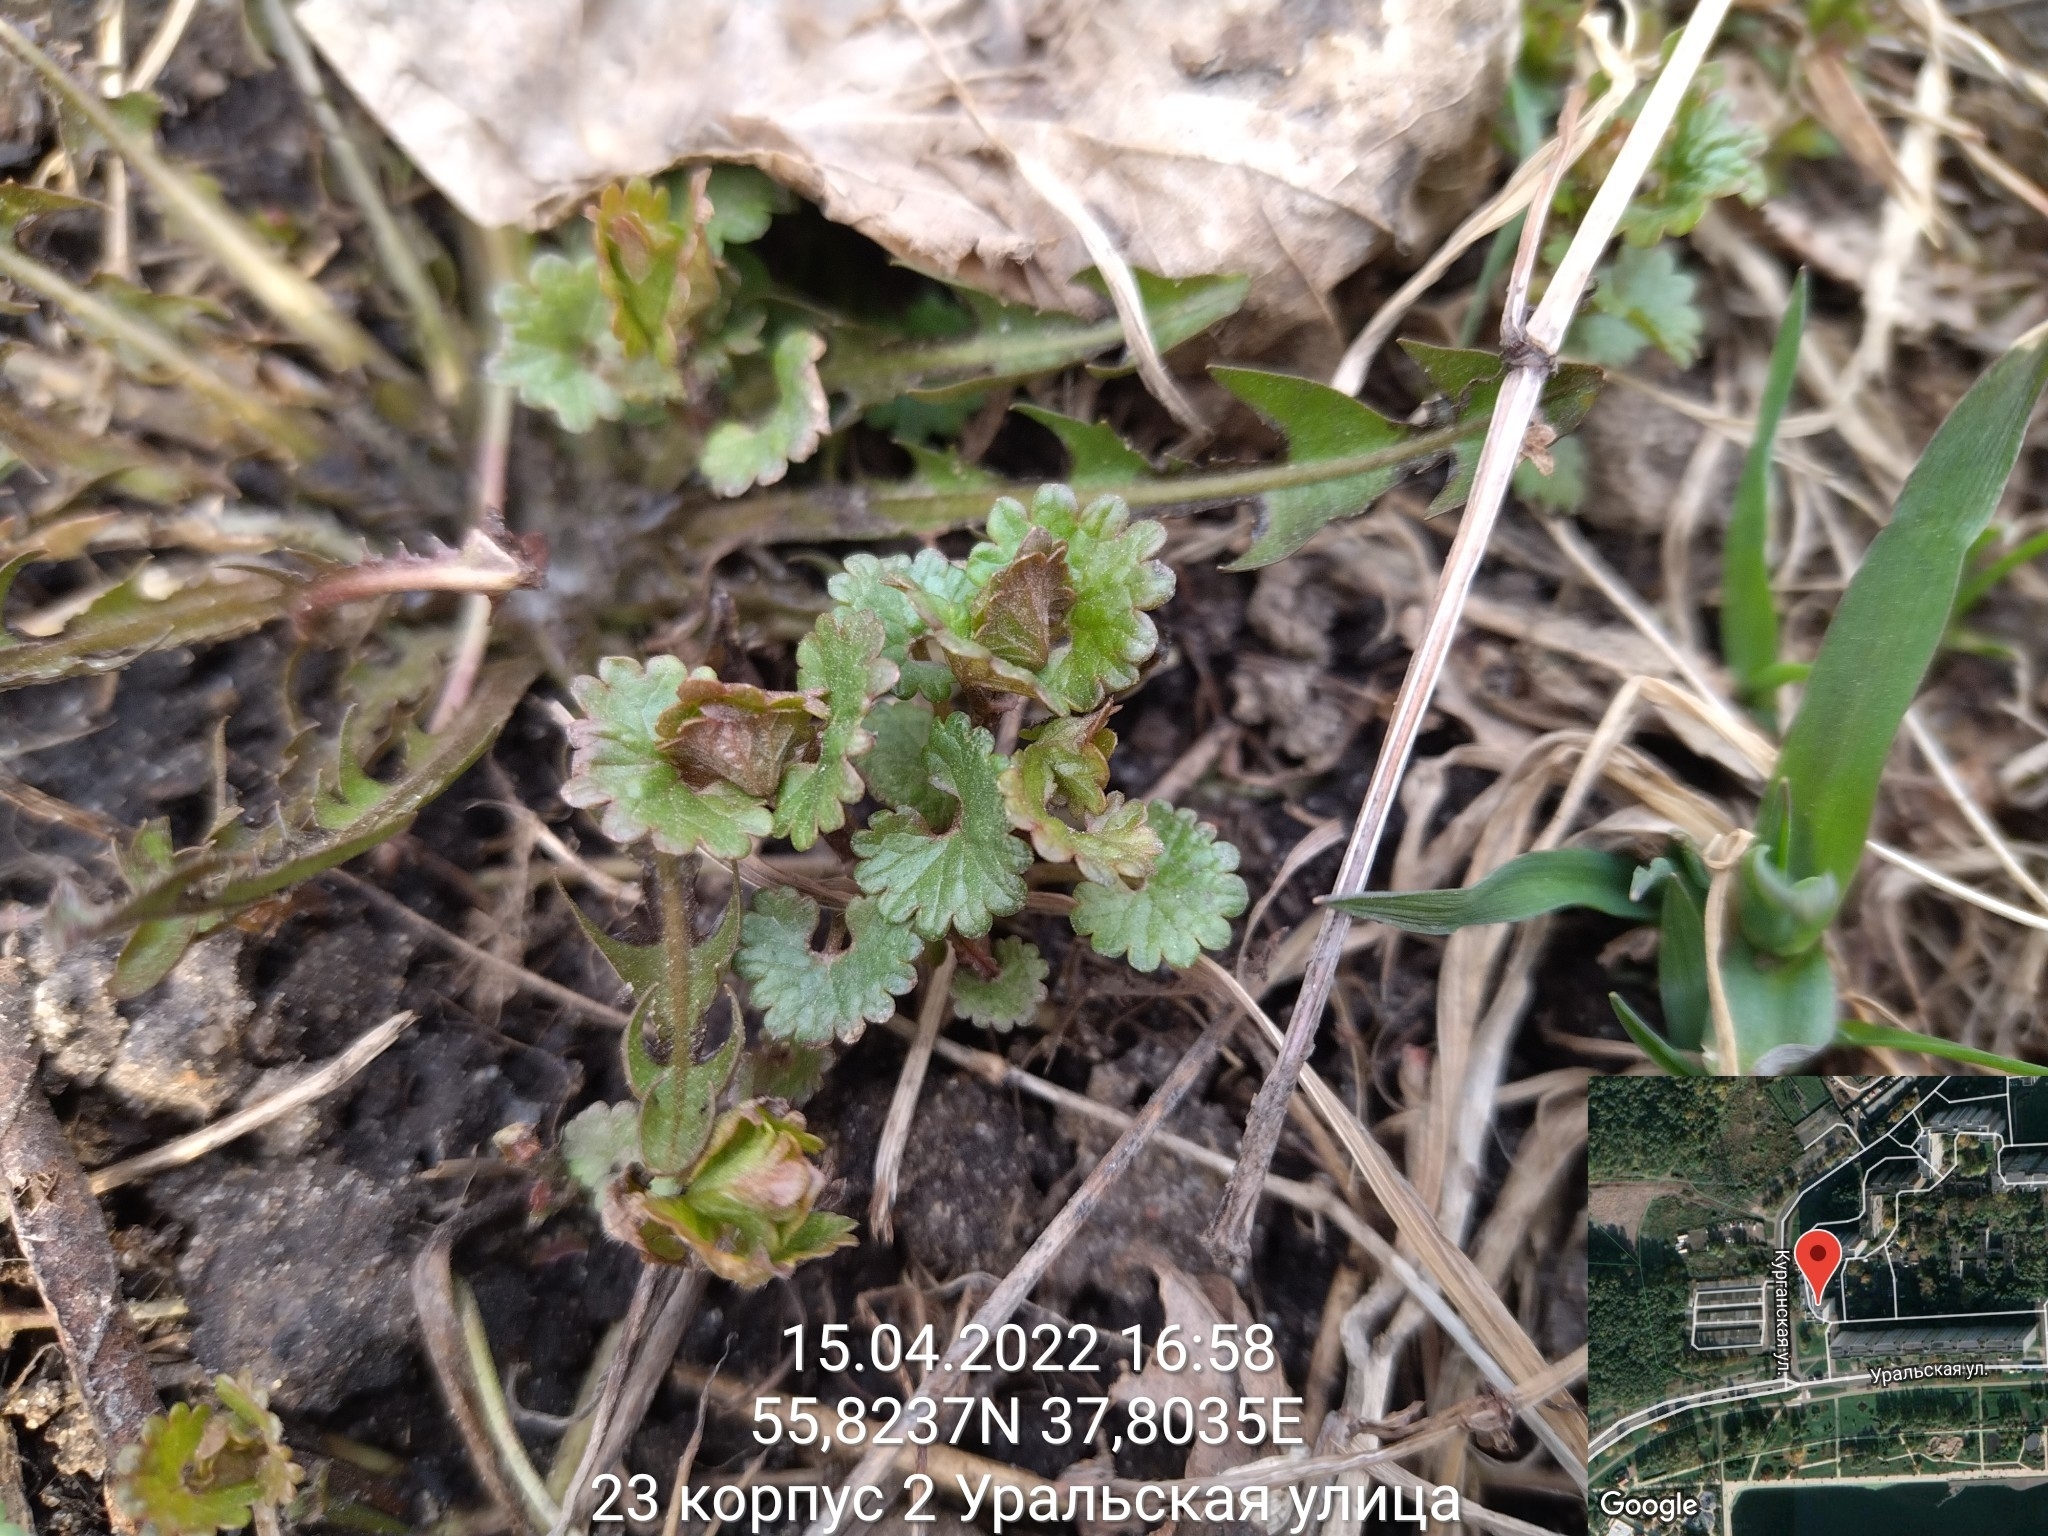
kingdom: Plantae
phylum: Tracheophyta
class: Magnoliopsida
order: Lamiales
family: Lamiaceae
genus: Glechoma
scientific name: Glechoma hederacea
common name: Ground ivy
